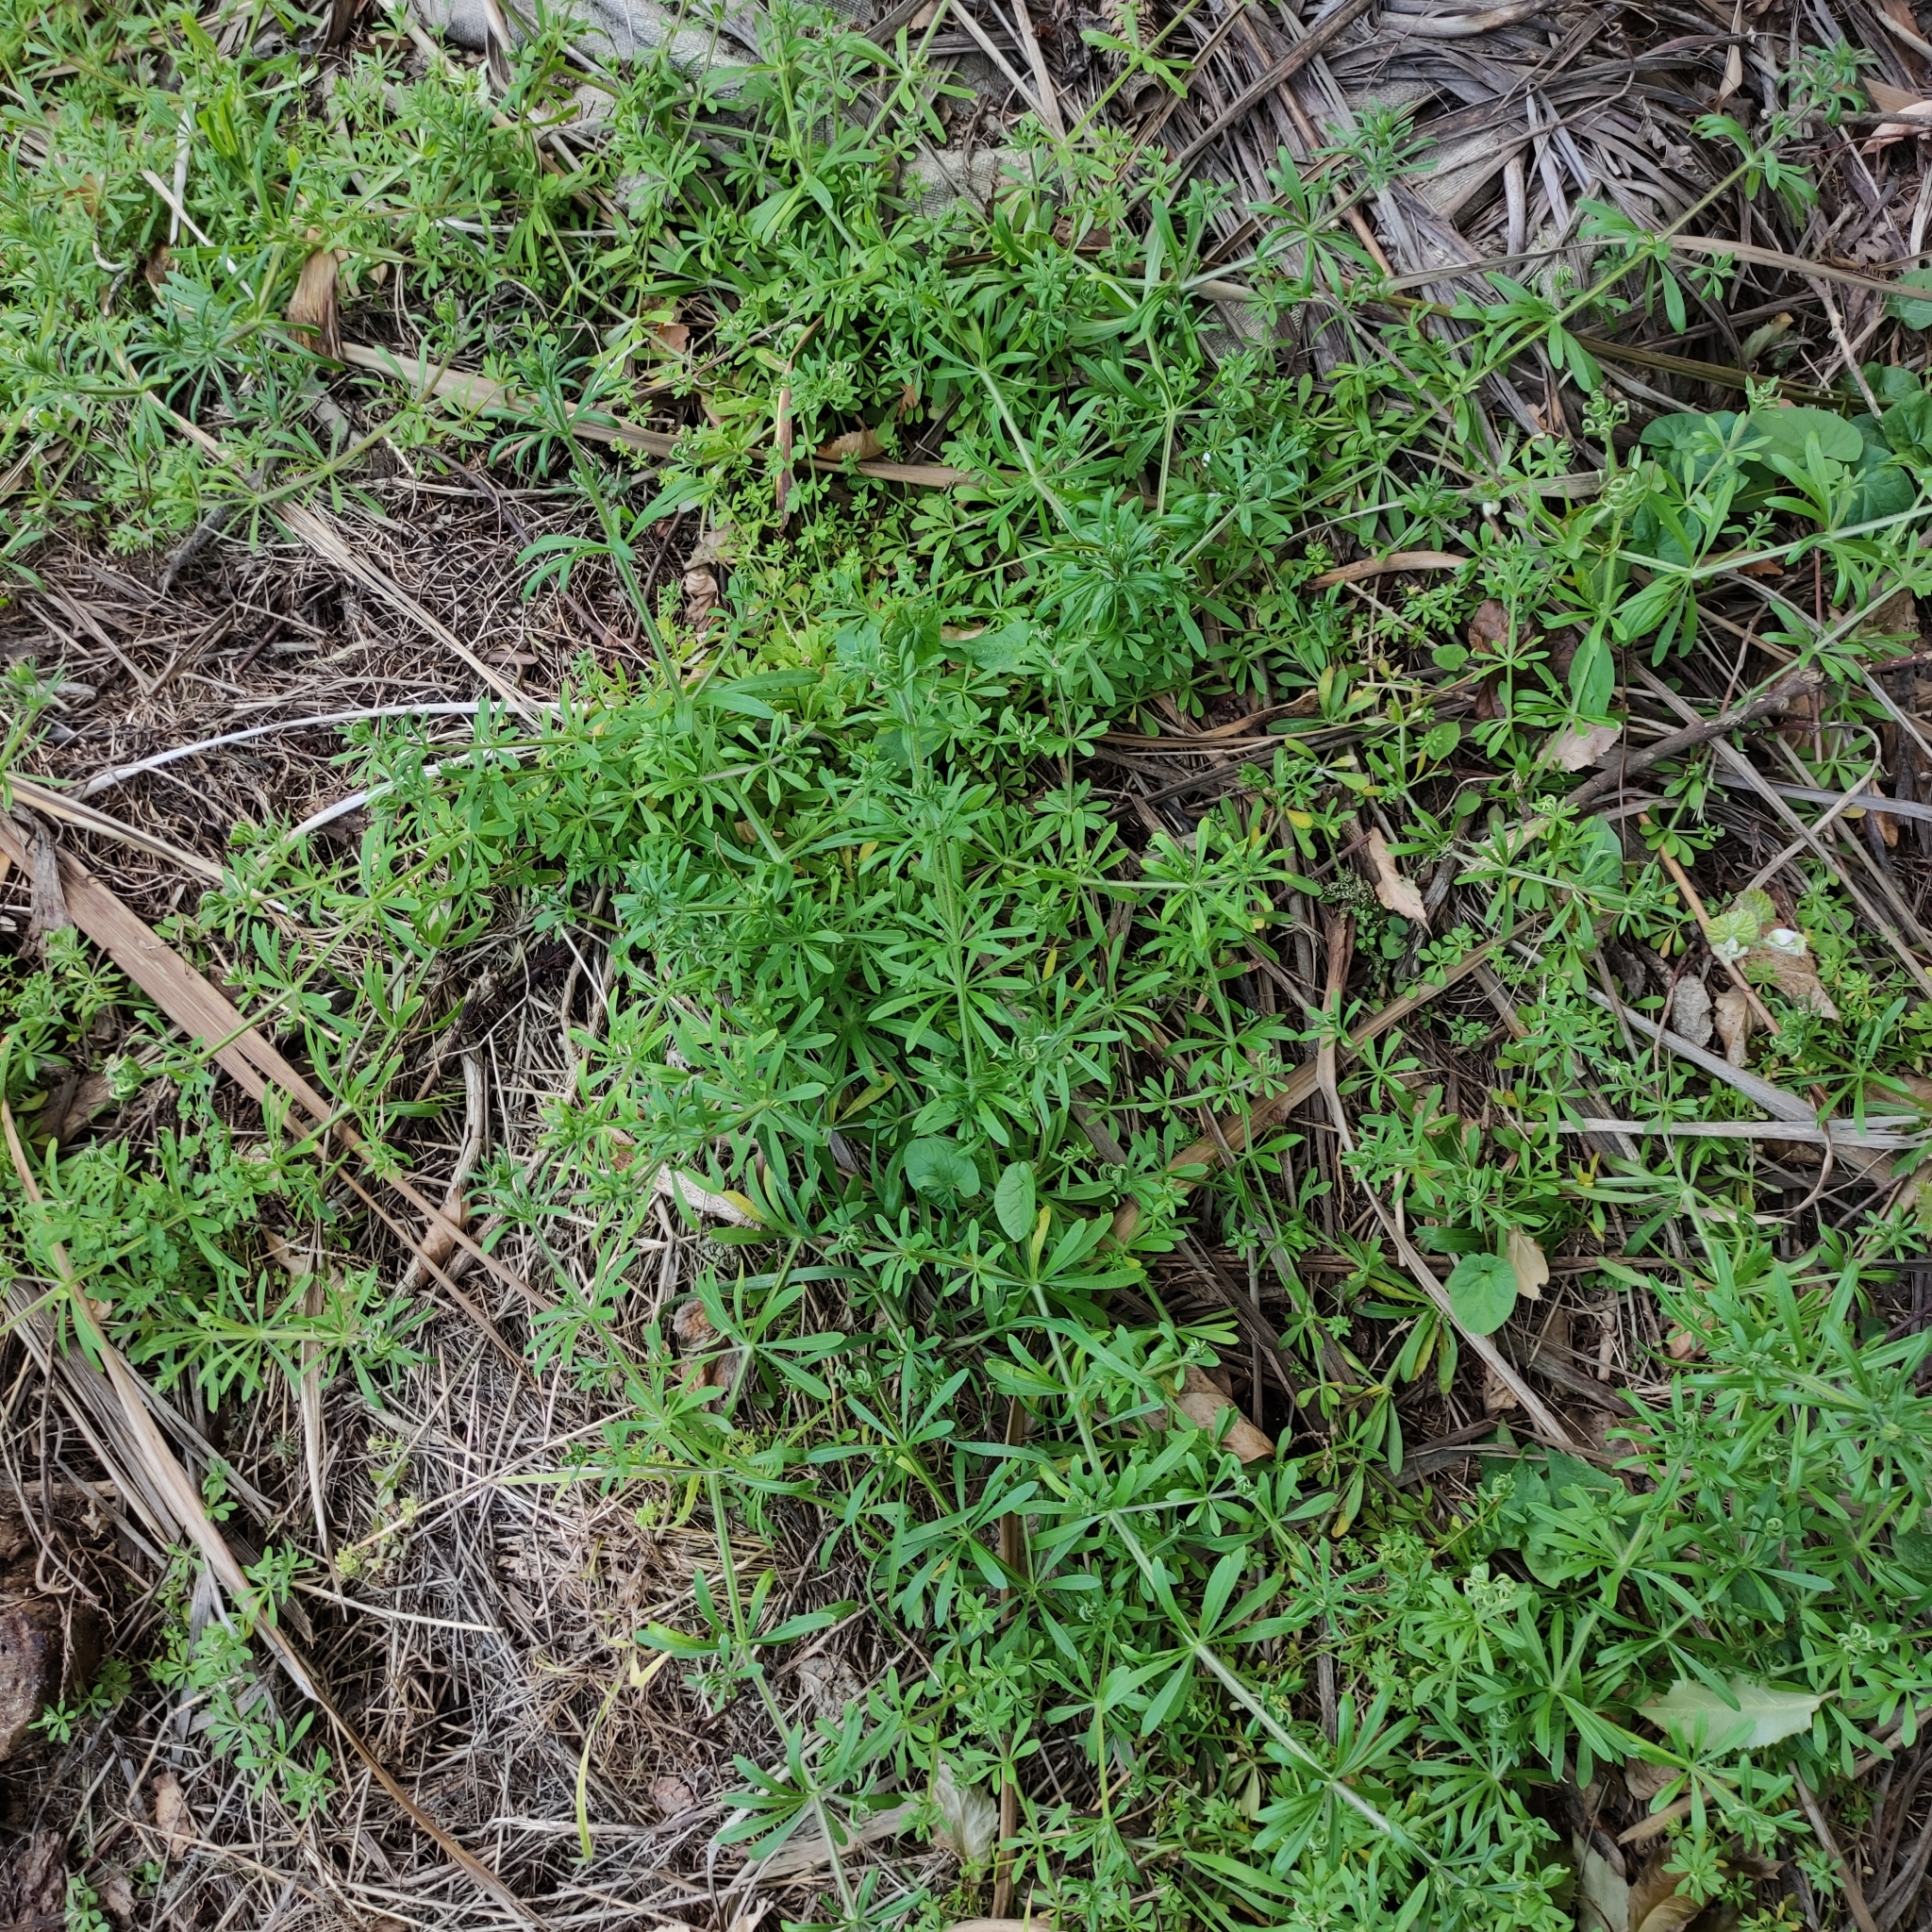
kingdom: Plantae
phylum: Tracheophyta
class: Magnoliopsida
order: Gentianales
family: Rubiaceae
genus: Galium
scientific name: Galium aparine
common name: Cleavers
